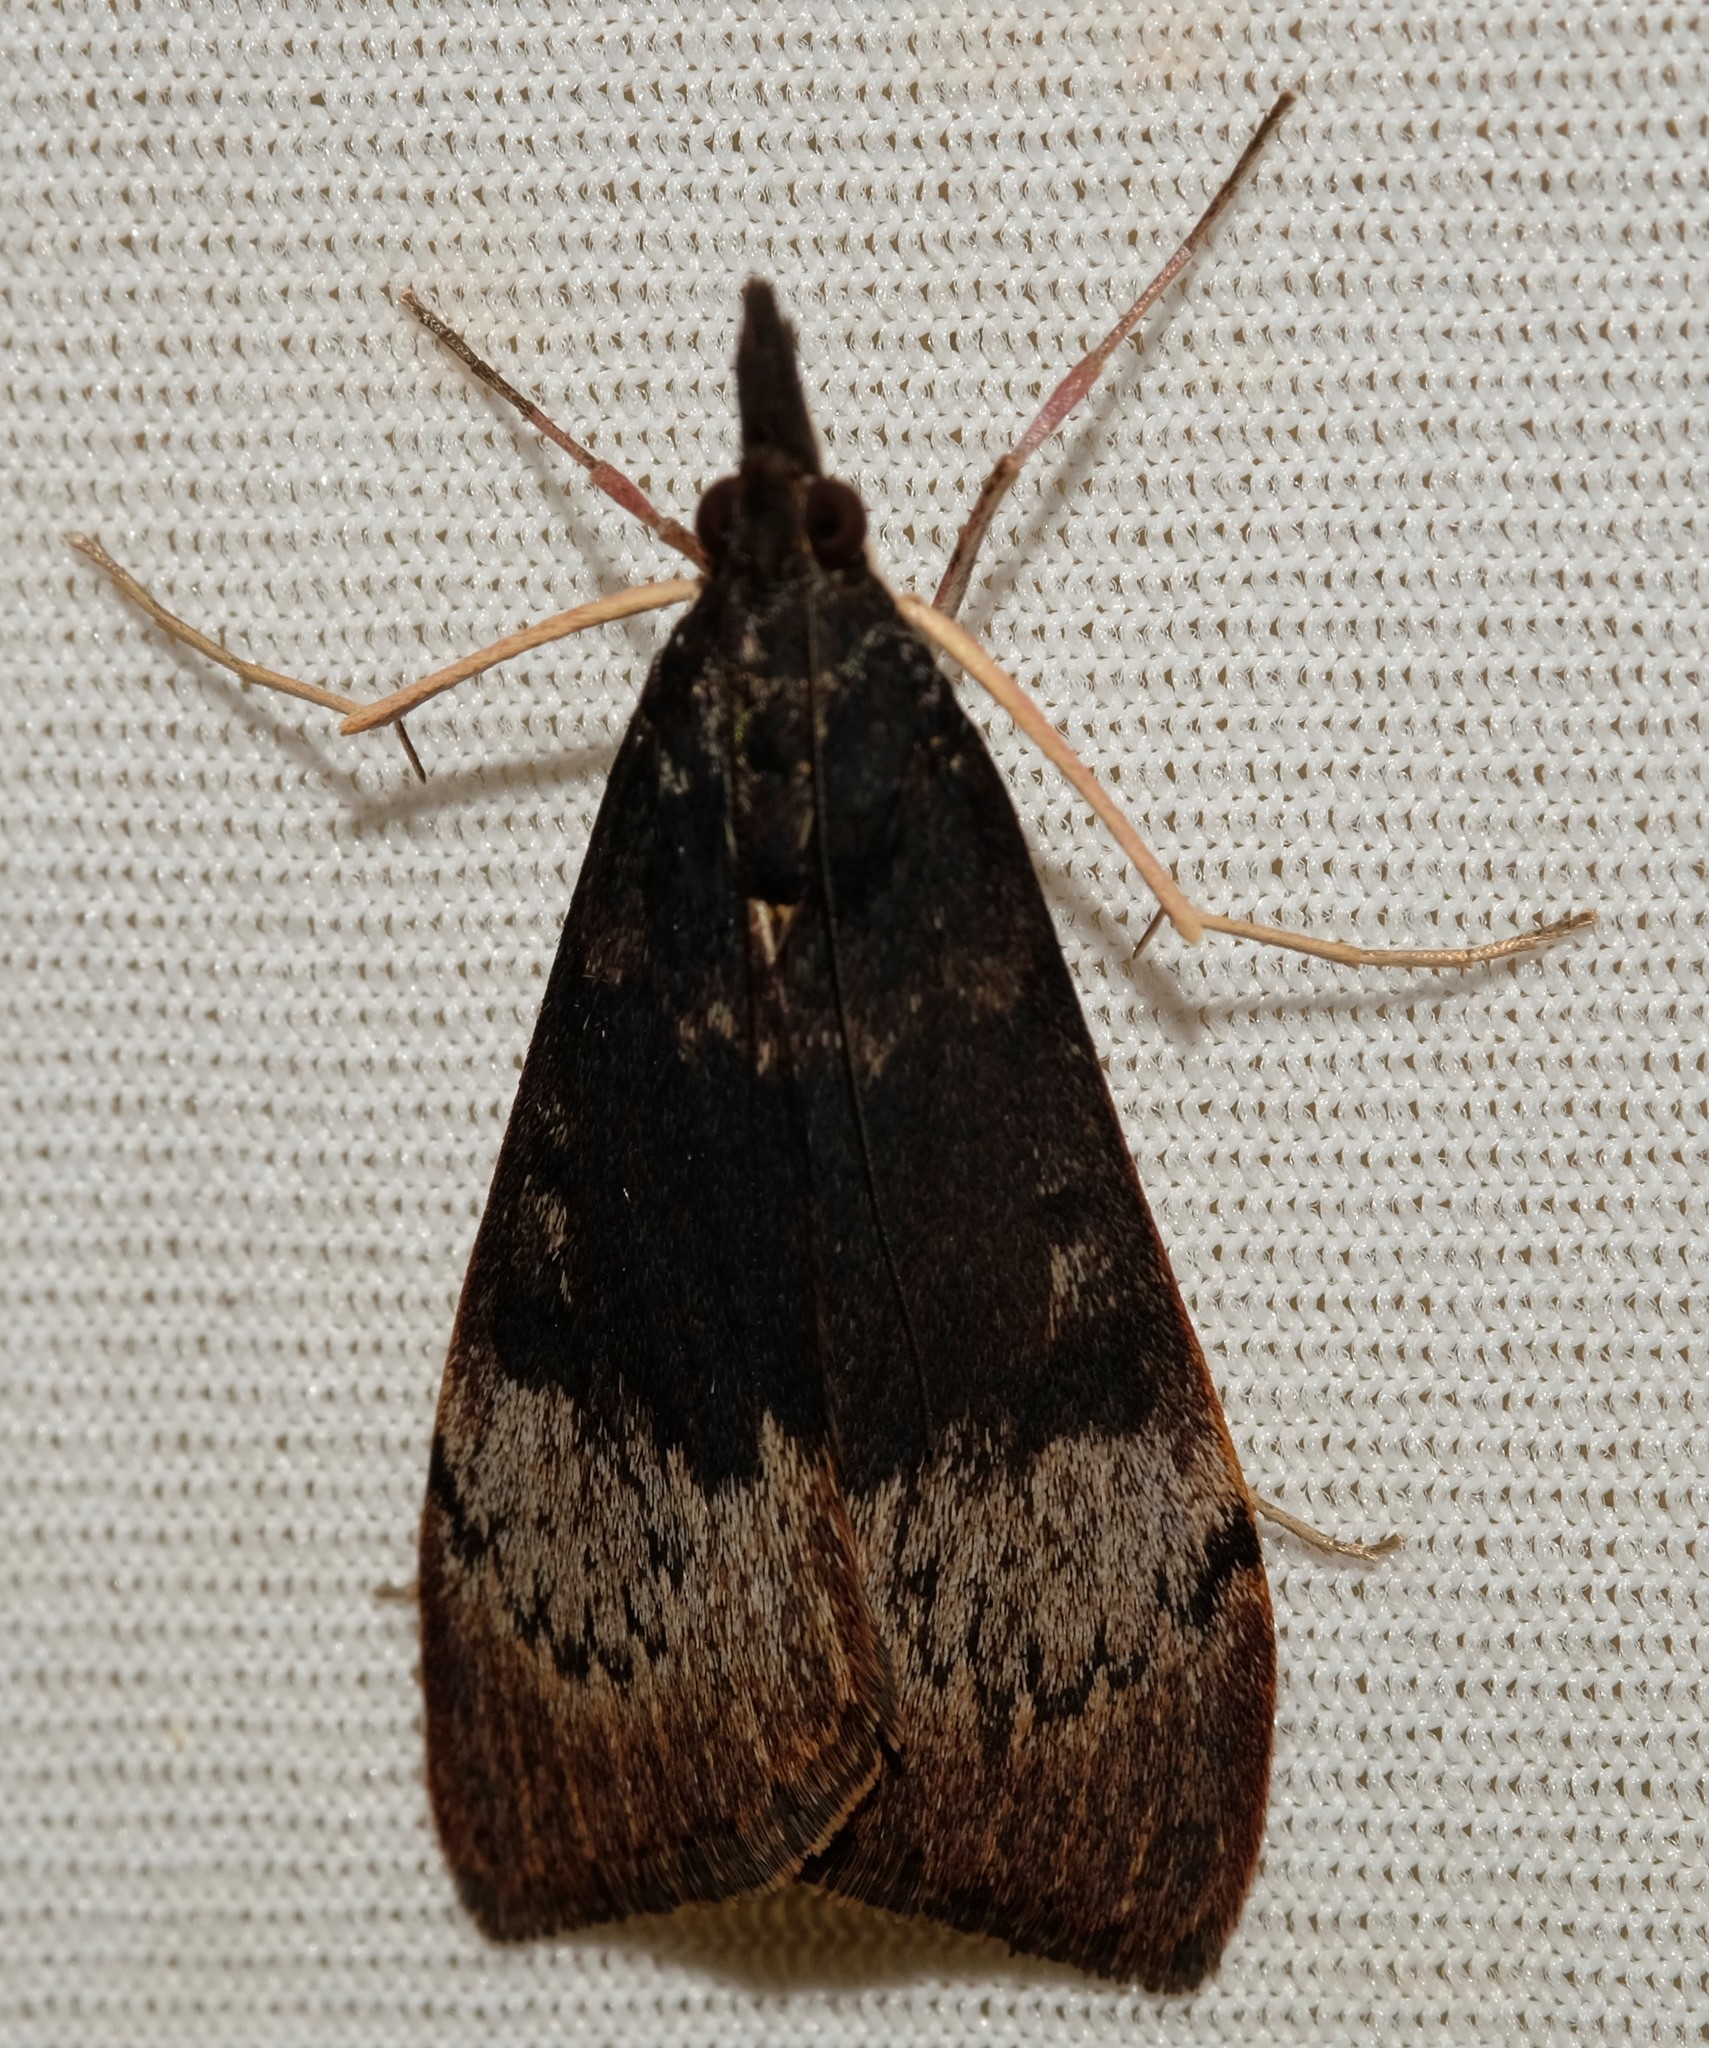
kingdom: Animalia
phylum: Arthropoda
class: Insecta
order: Lepidoptera
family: Crambidae
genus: Uresiphita
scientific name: Uresiphita ornithopteralis
